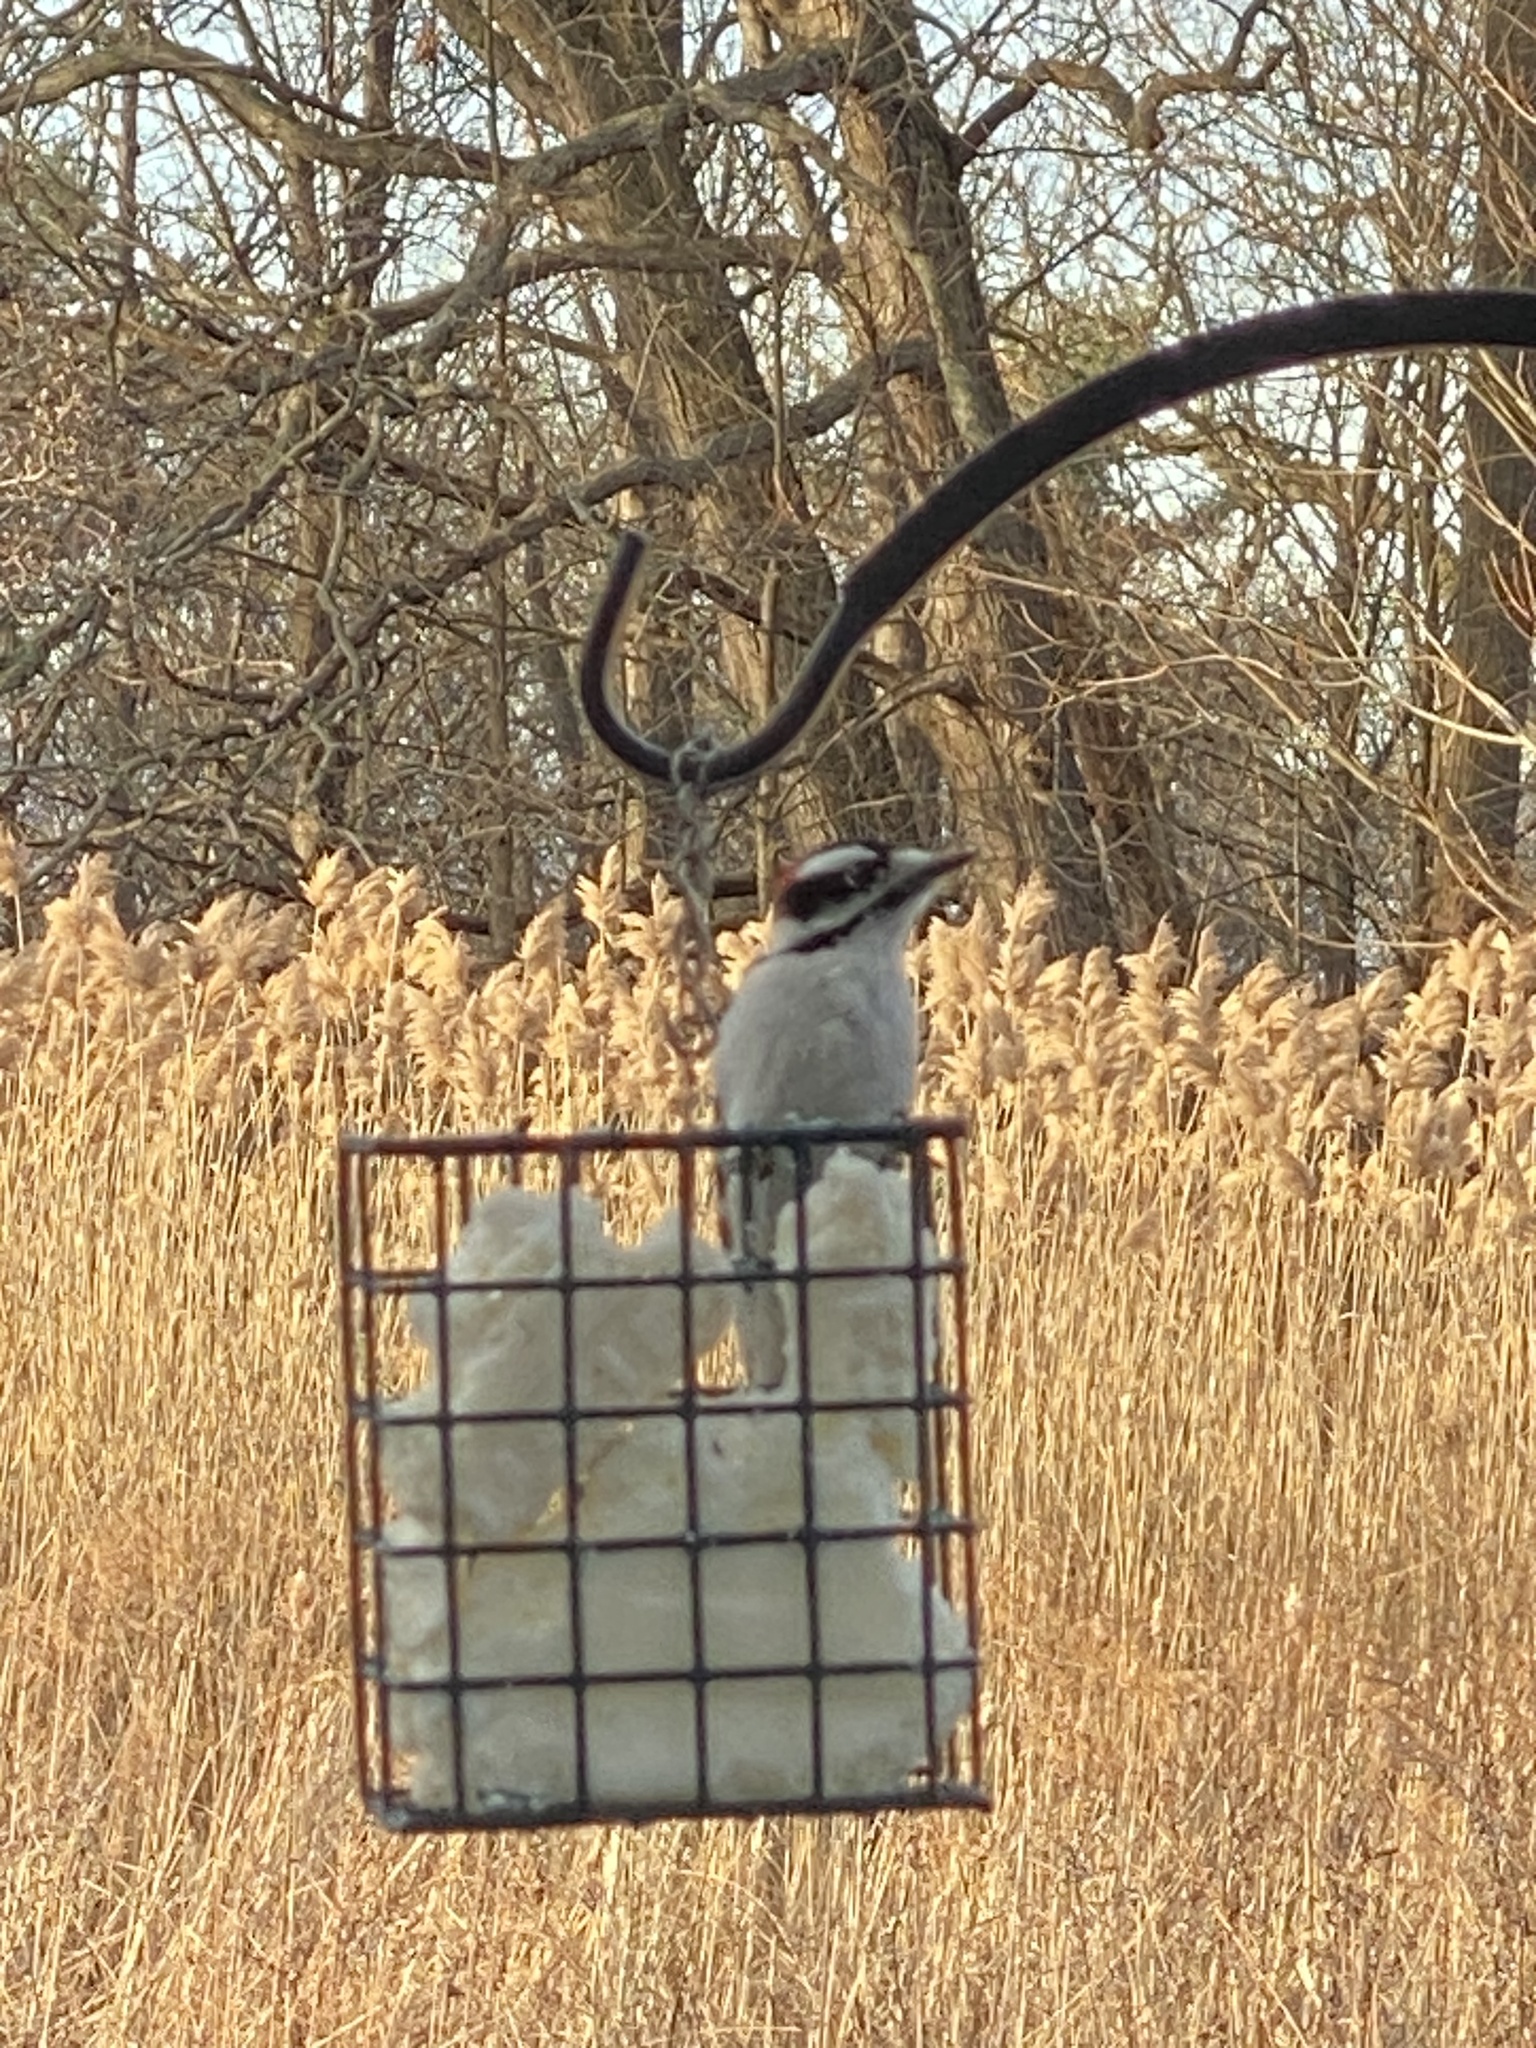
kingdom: Animalia
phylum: Chordata
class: Aves
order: Piciformes
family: Picidae
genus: Dryobates
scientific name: Dryobates pubescens
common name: Downy woodpecker
